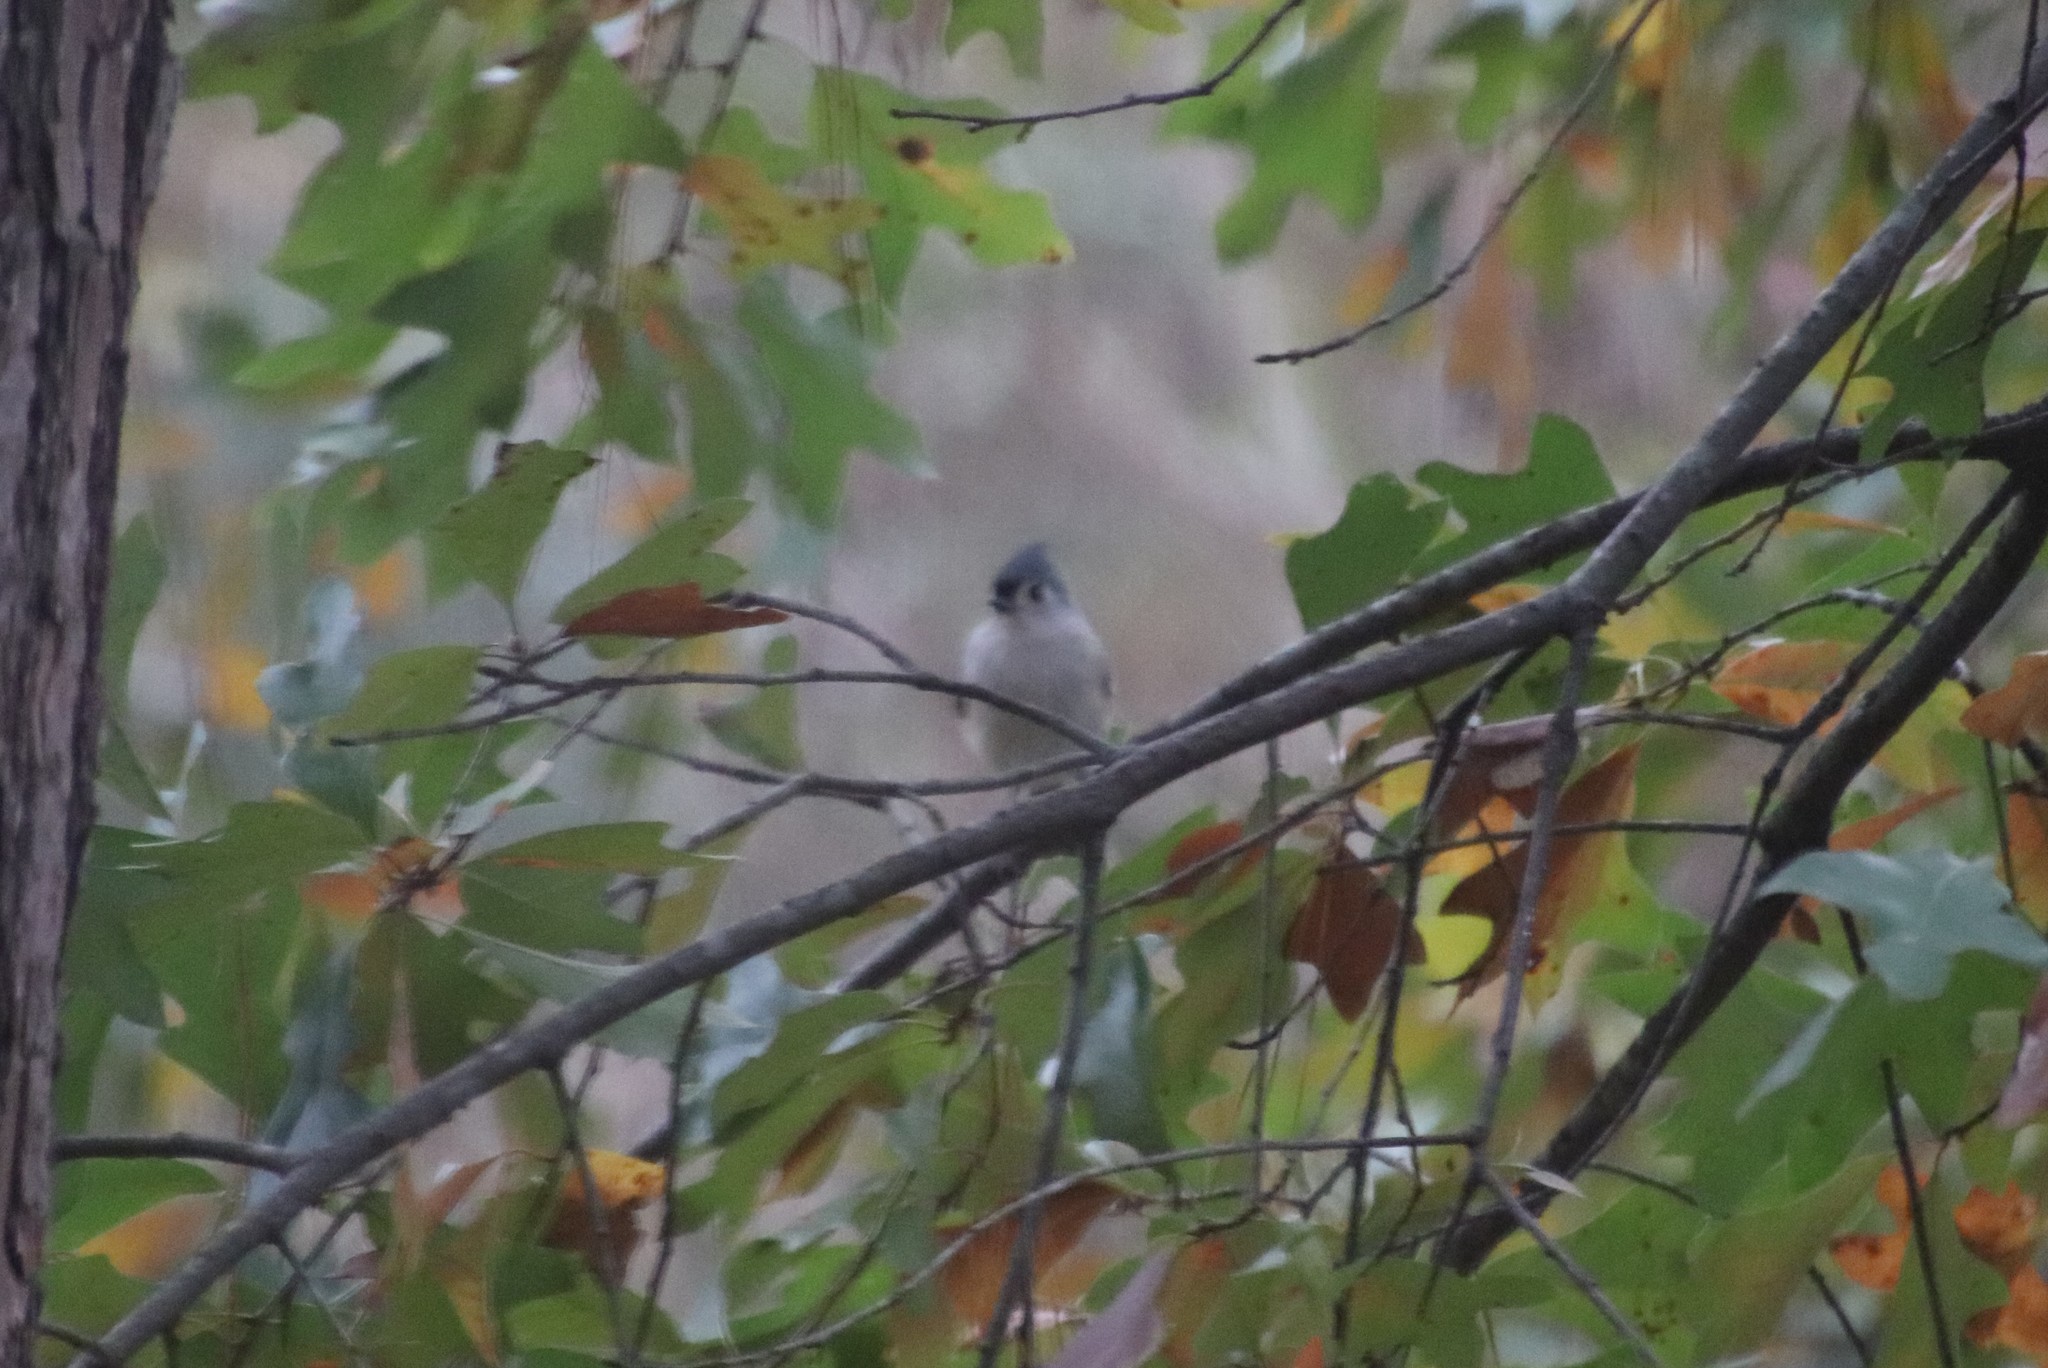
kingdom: Animalia
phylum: Chordata
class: Aves
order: Passeriformes
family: Paridae
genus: Baeolophus
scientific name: Baeolophus bicolor
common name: Tufted titmouse
